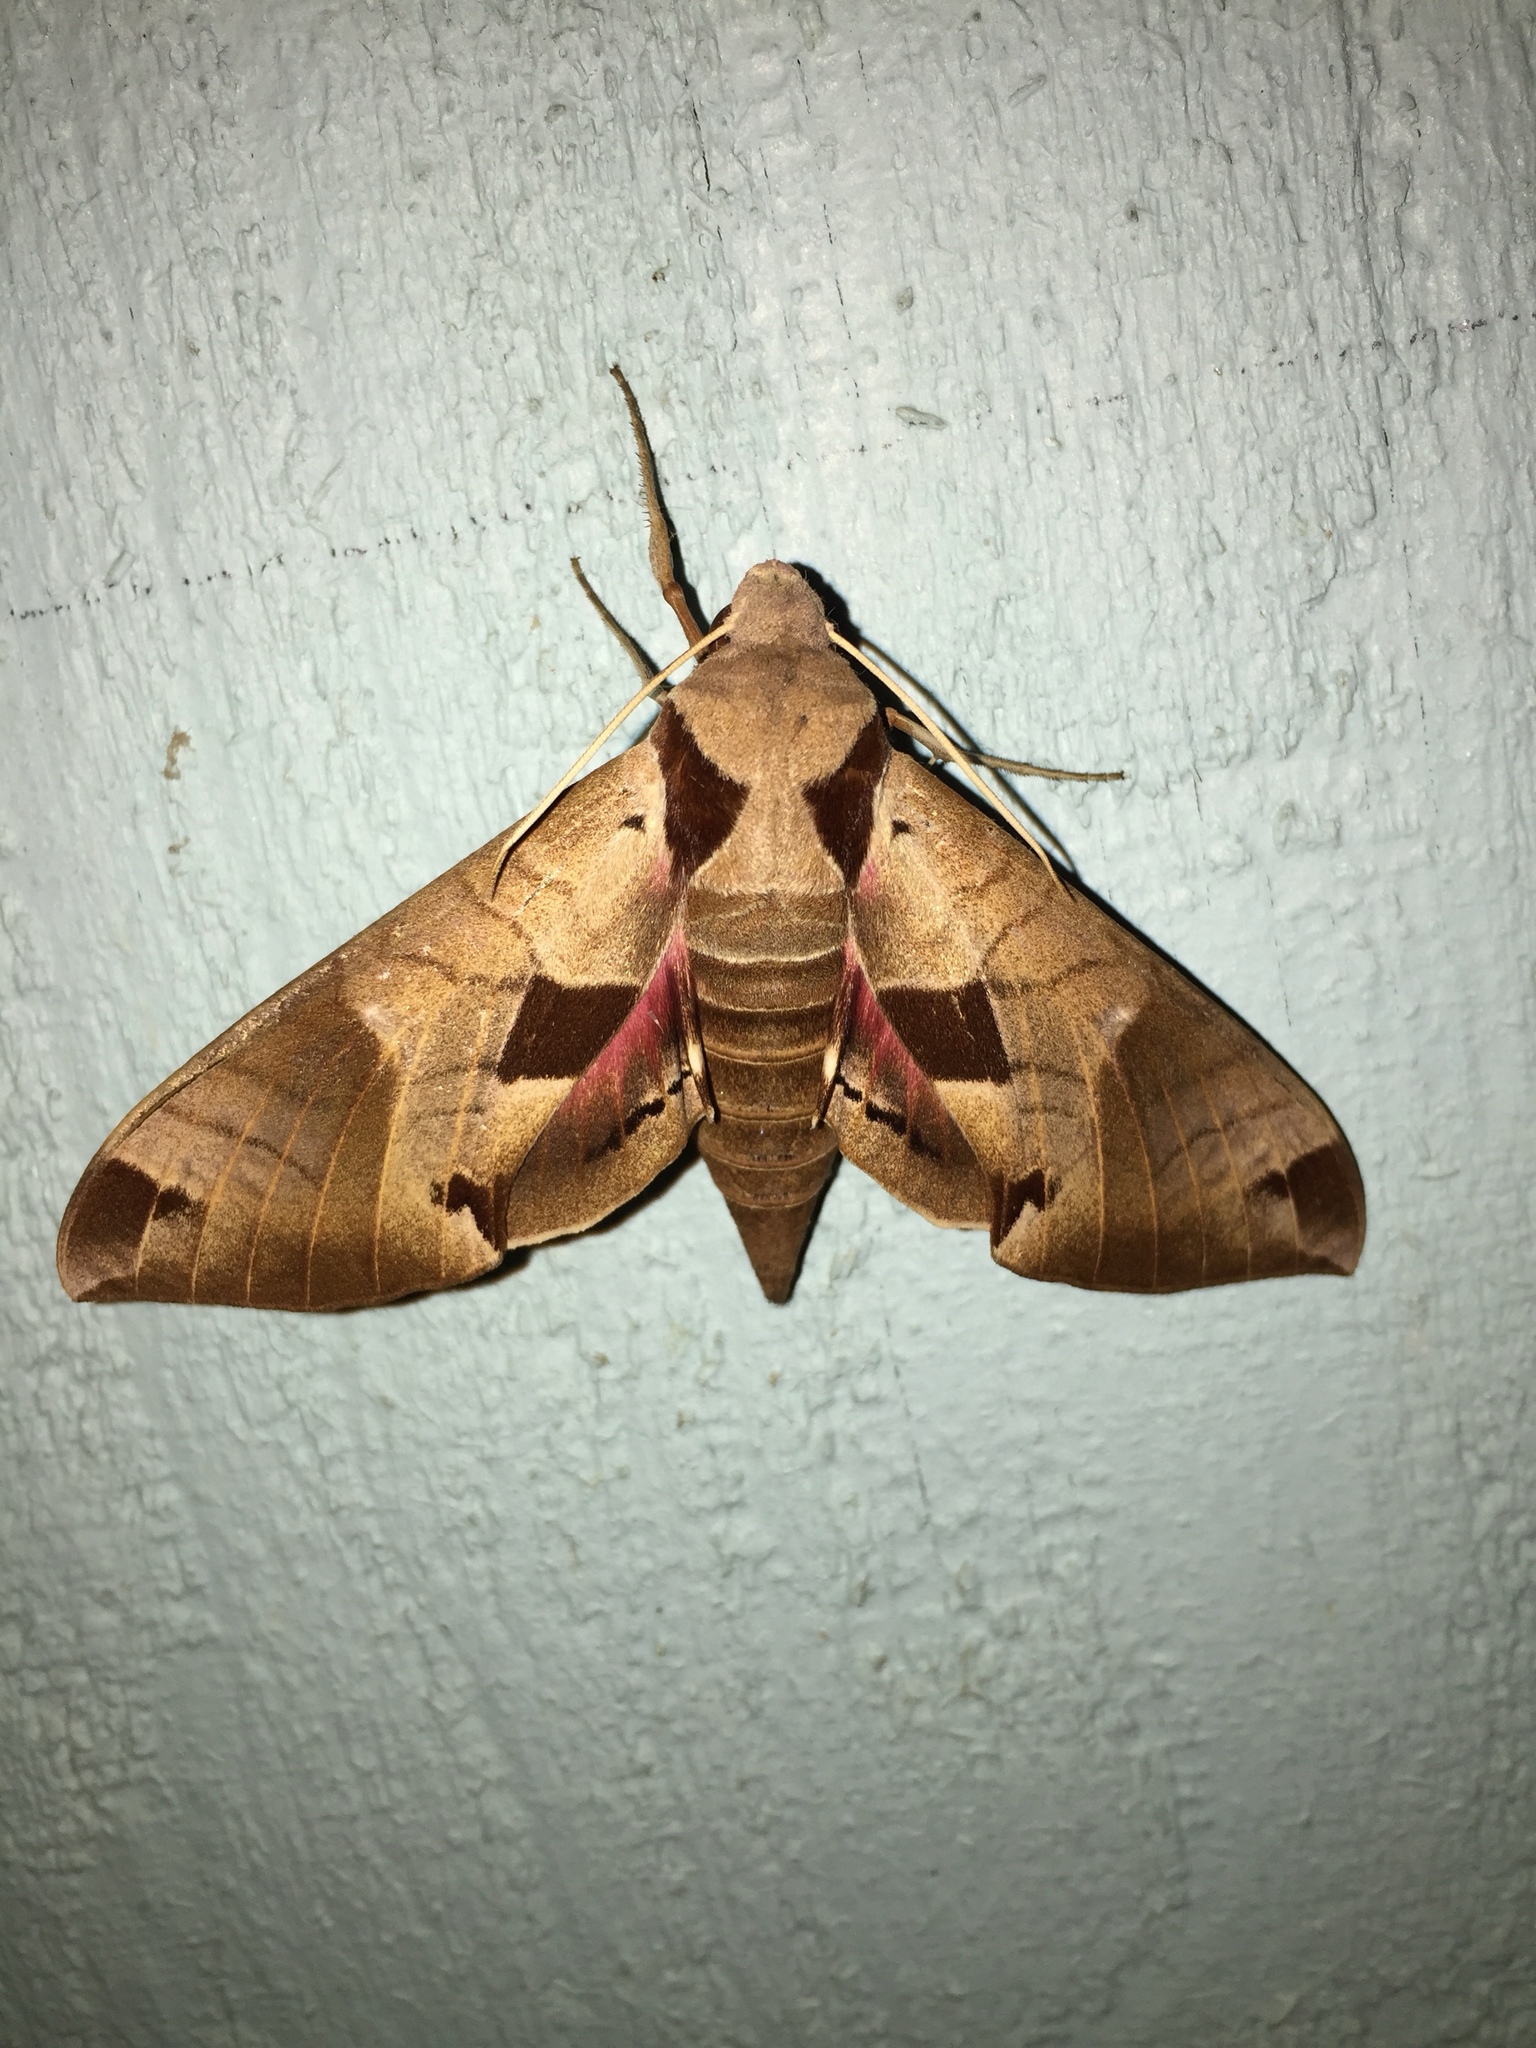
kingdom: Animalia
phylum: Arthropoda
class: Insecta
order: Lepidoptera
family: Sphingidae
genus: Eumorpha
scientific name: Eumorpha achemon
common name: Achemon sphinx
